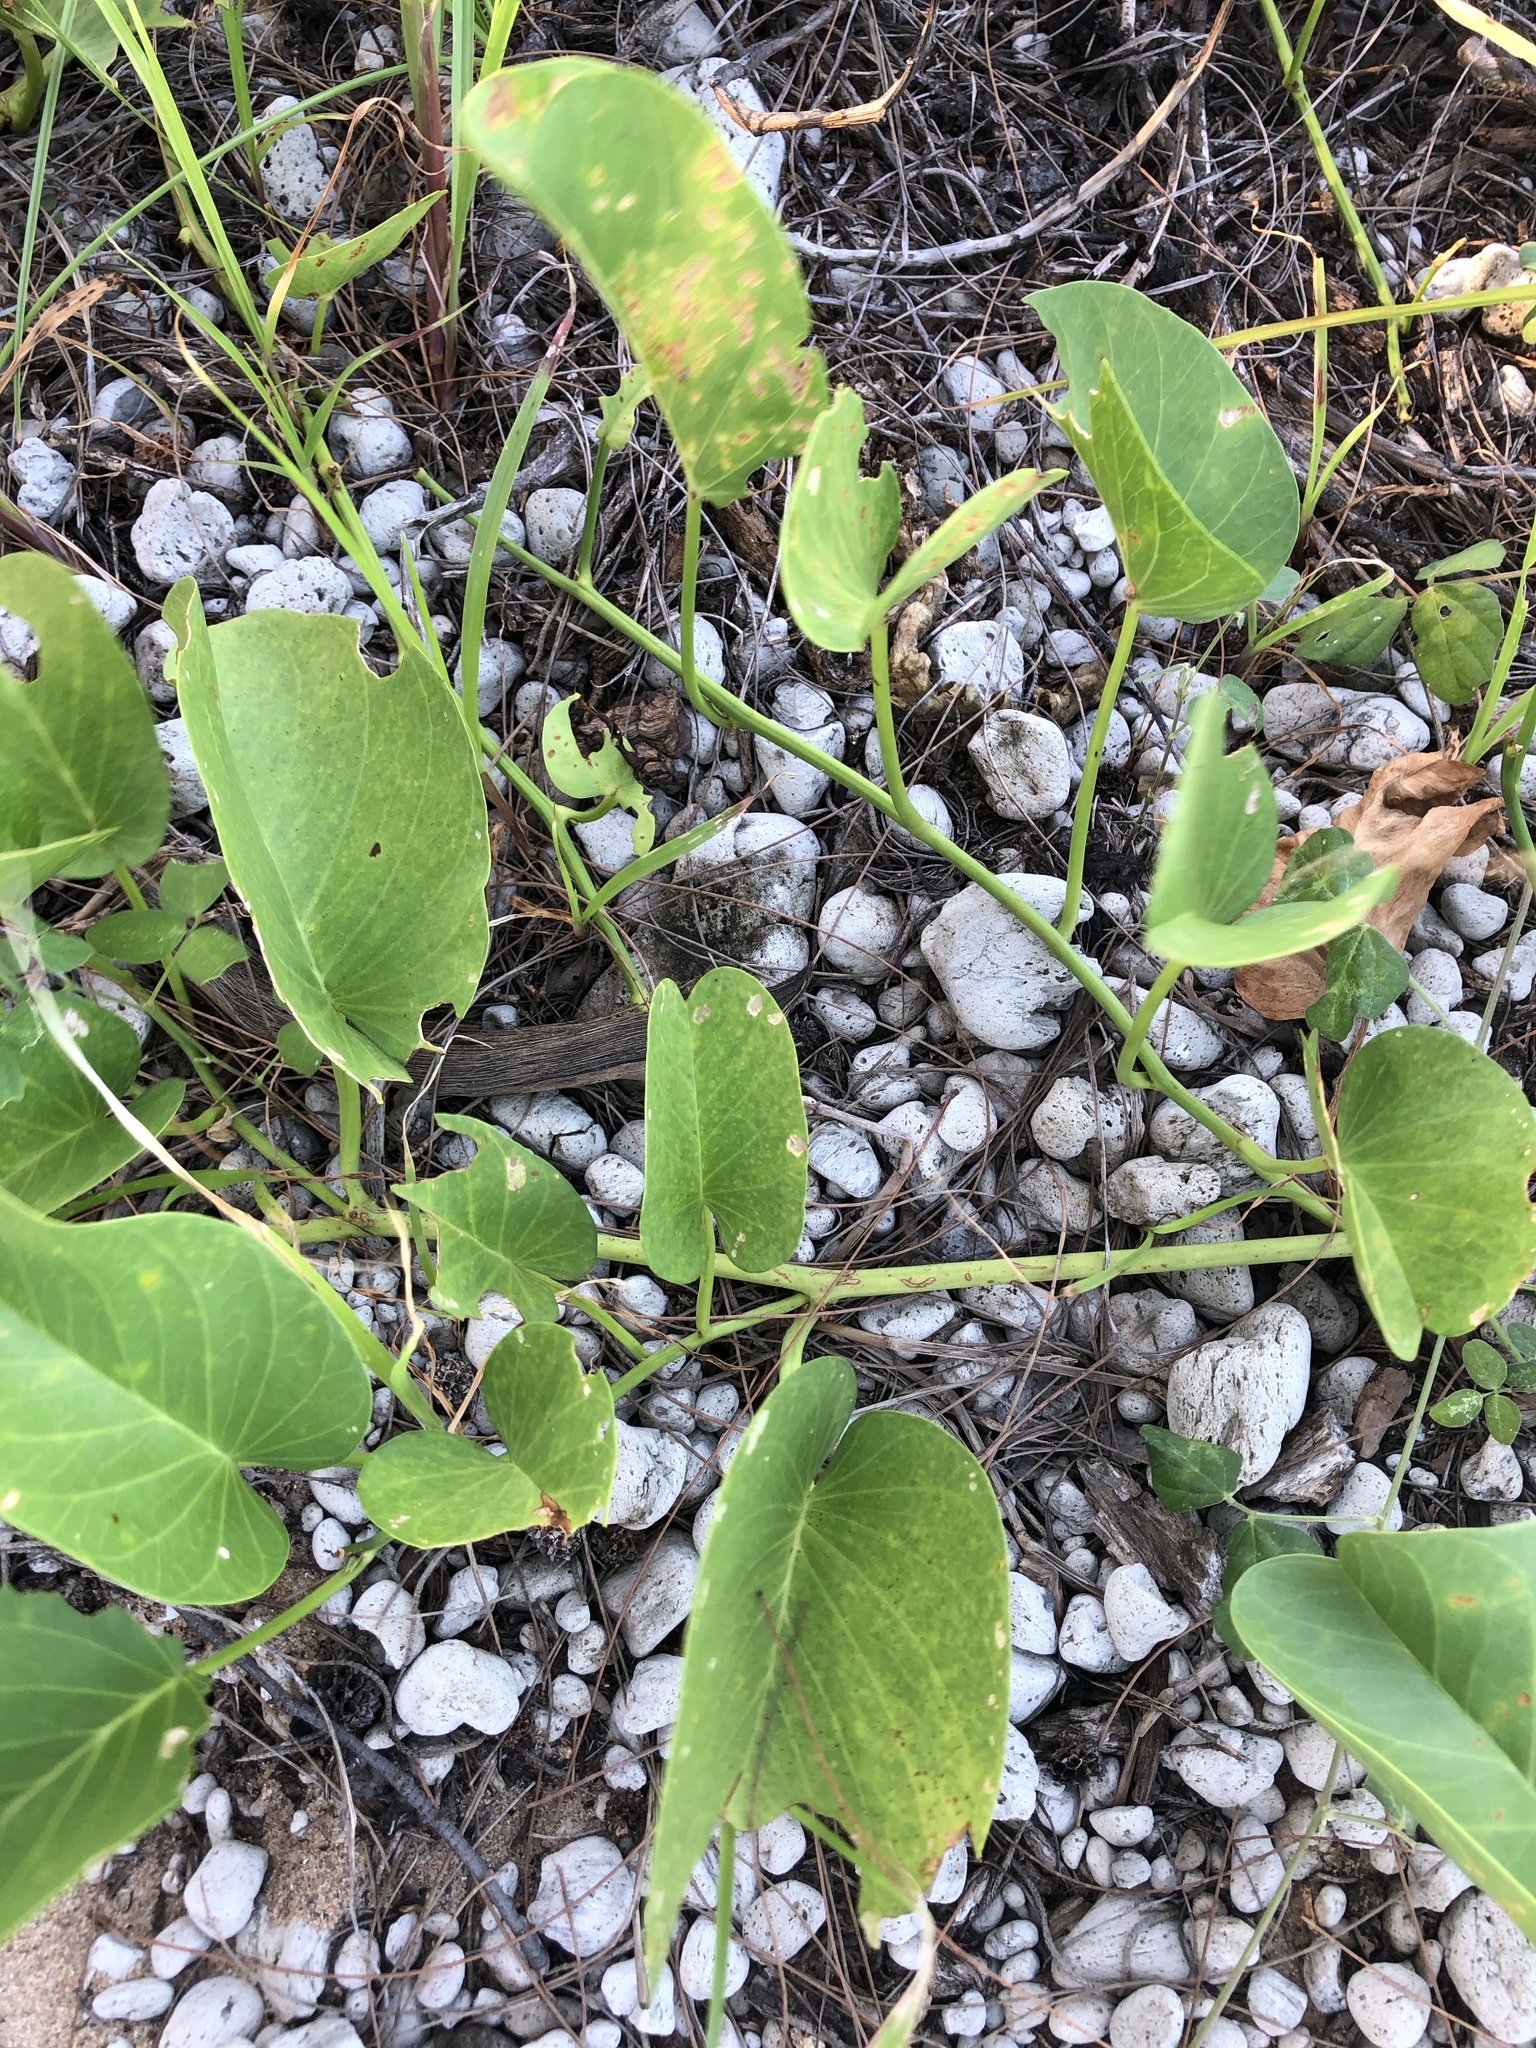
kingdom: Plantae
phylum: Tracheophyta
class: Magnoliopsida
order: Solanales
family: Convolvulaceae
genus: Ipomoea
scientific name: Ipomoea pes-caprae
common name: Beach morning glory
